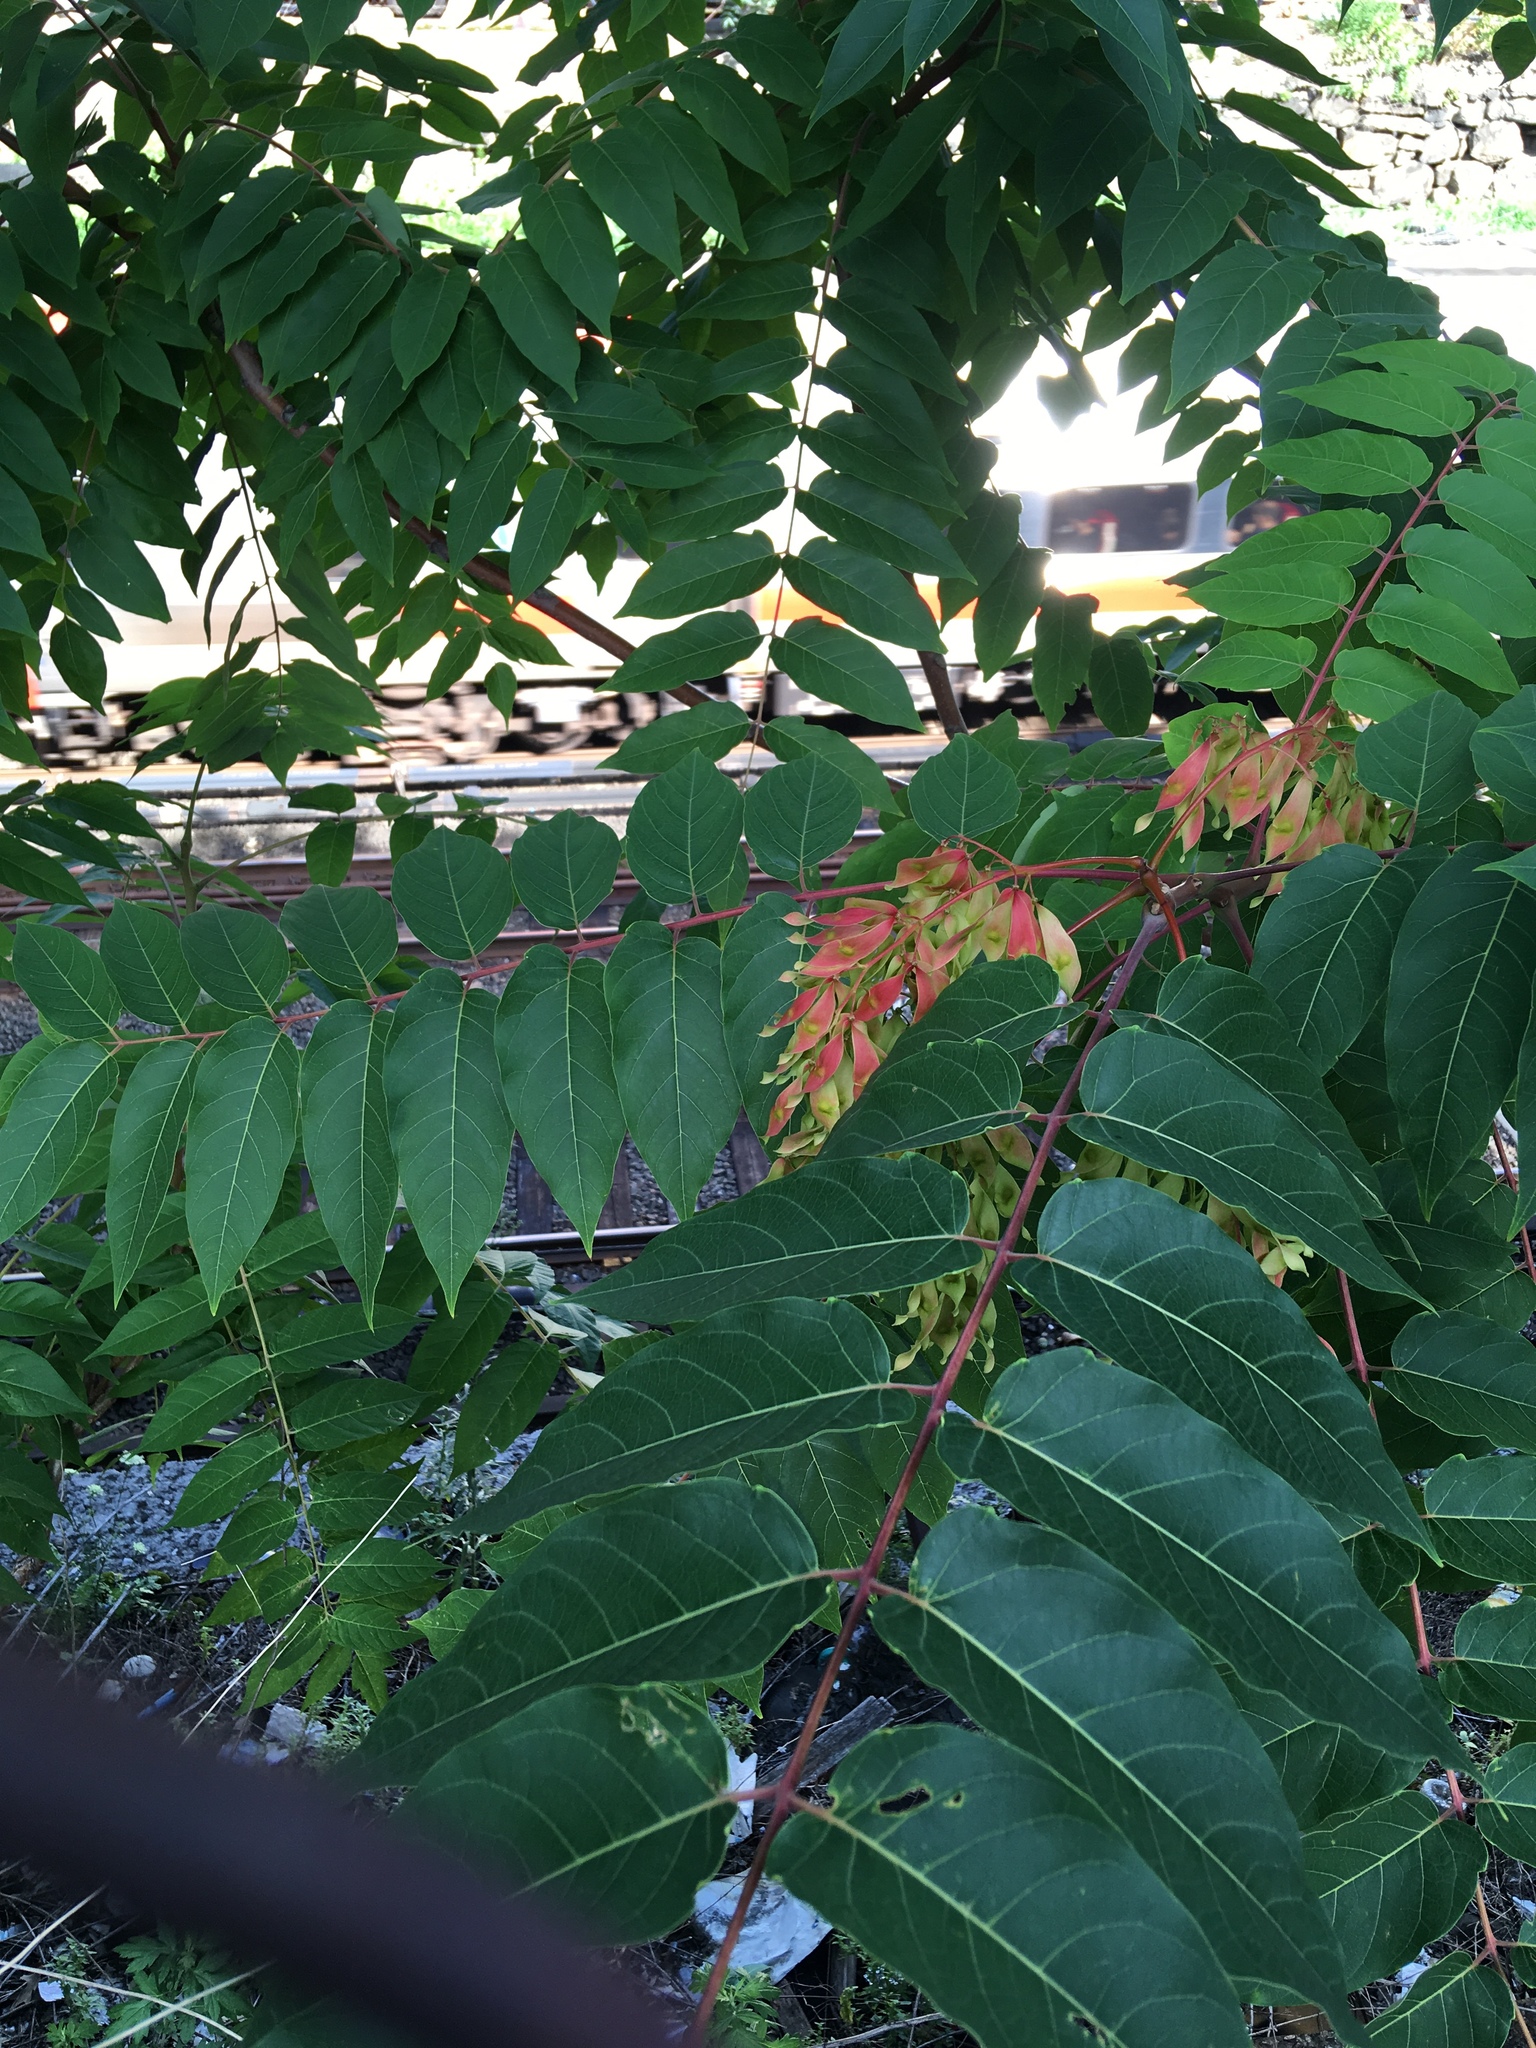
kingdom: Plantae
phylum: Tracheophyta
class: Magnoliopsida
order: Sapindales
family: Simaroubaceae
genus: Ailanthus
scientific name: Ailanthus altissima
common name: Tree-of-heaven
